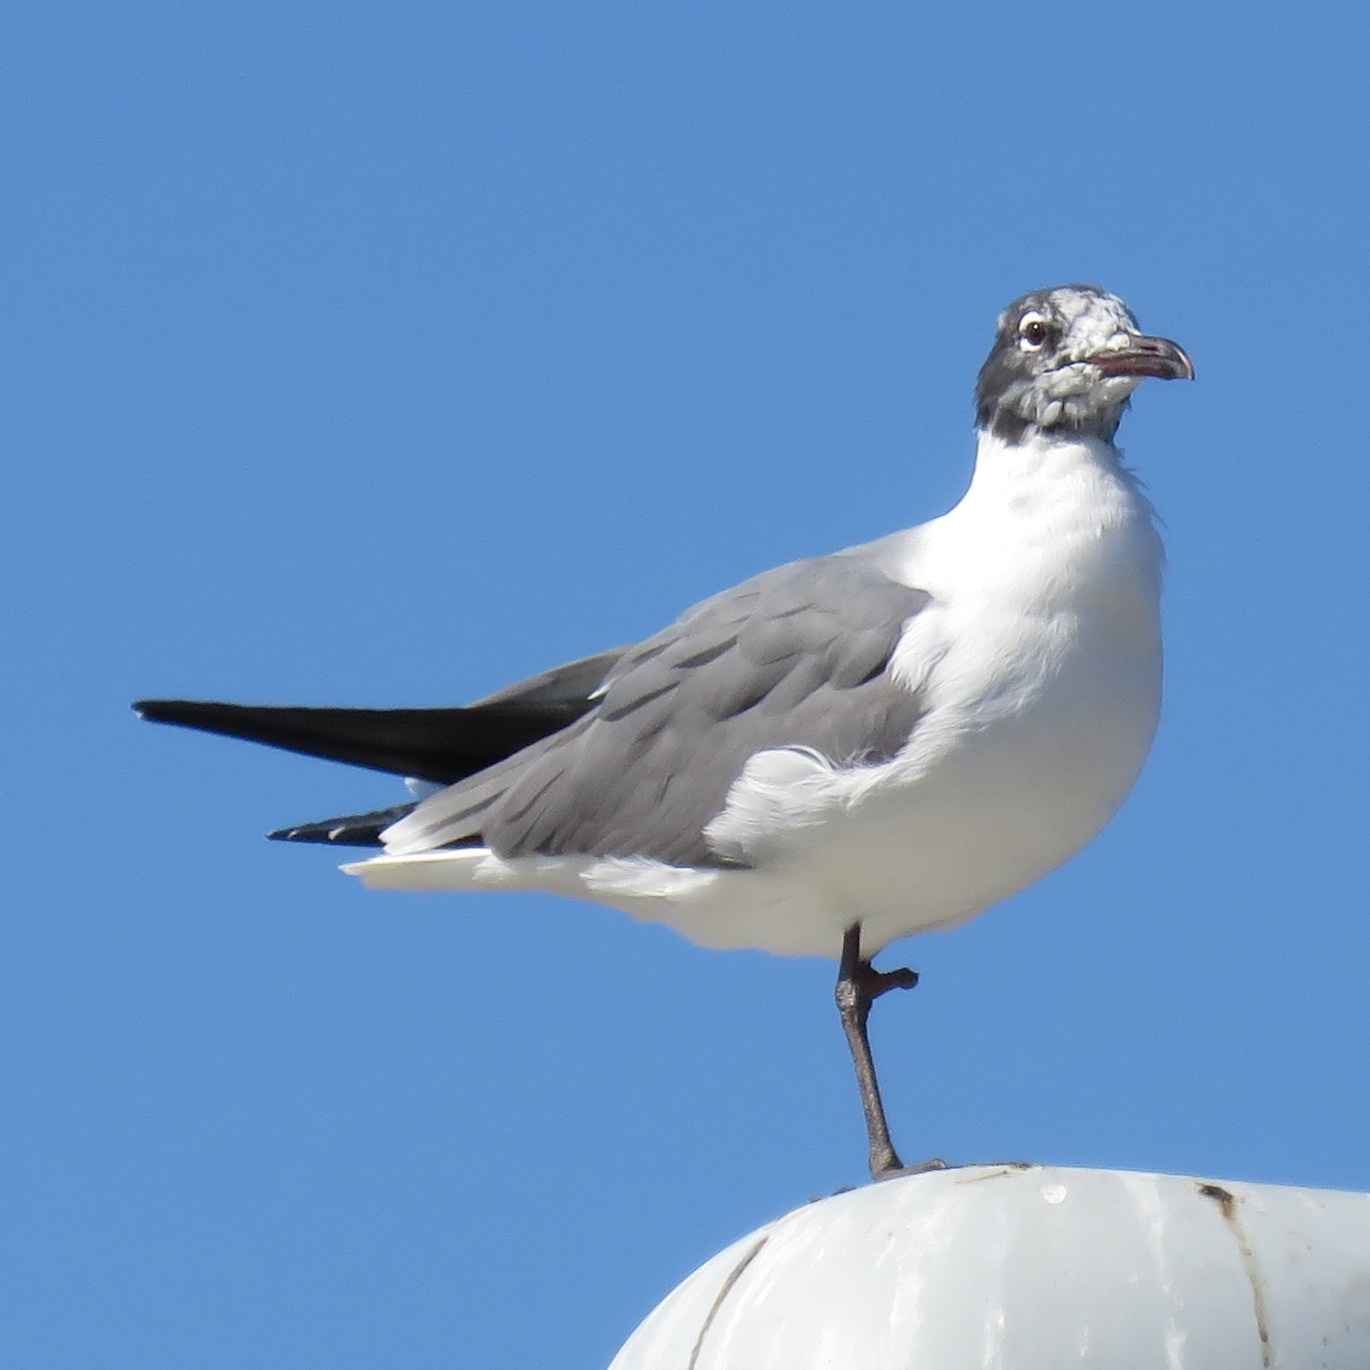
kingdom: Animalia
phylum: Chordata
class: Aves
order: Charadriiformes
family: Laridae
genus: Leucophaeus
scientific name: Leucophaeus atricilla
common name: Laughing gull
